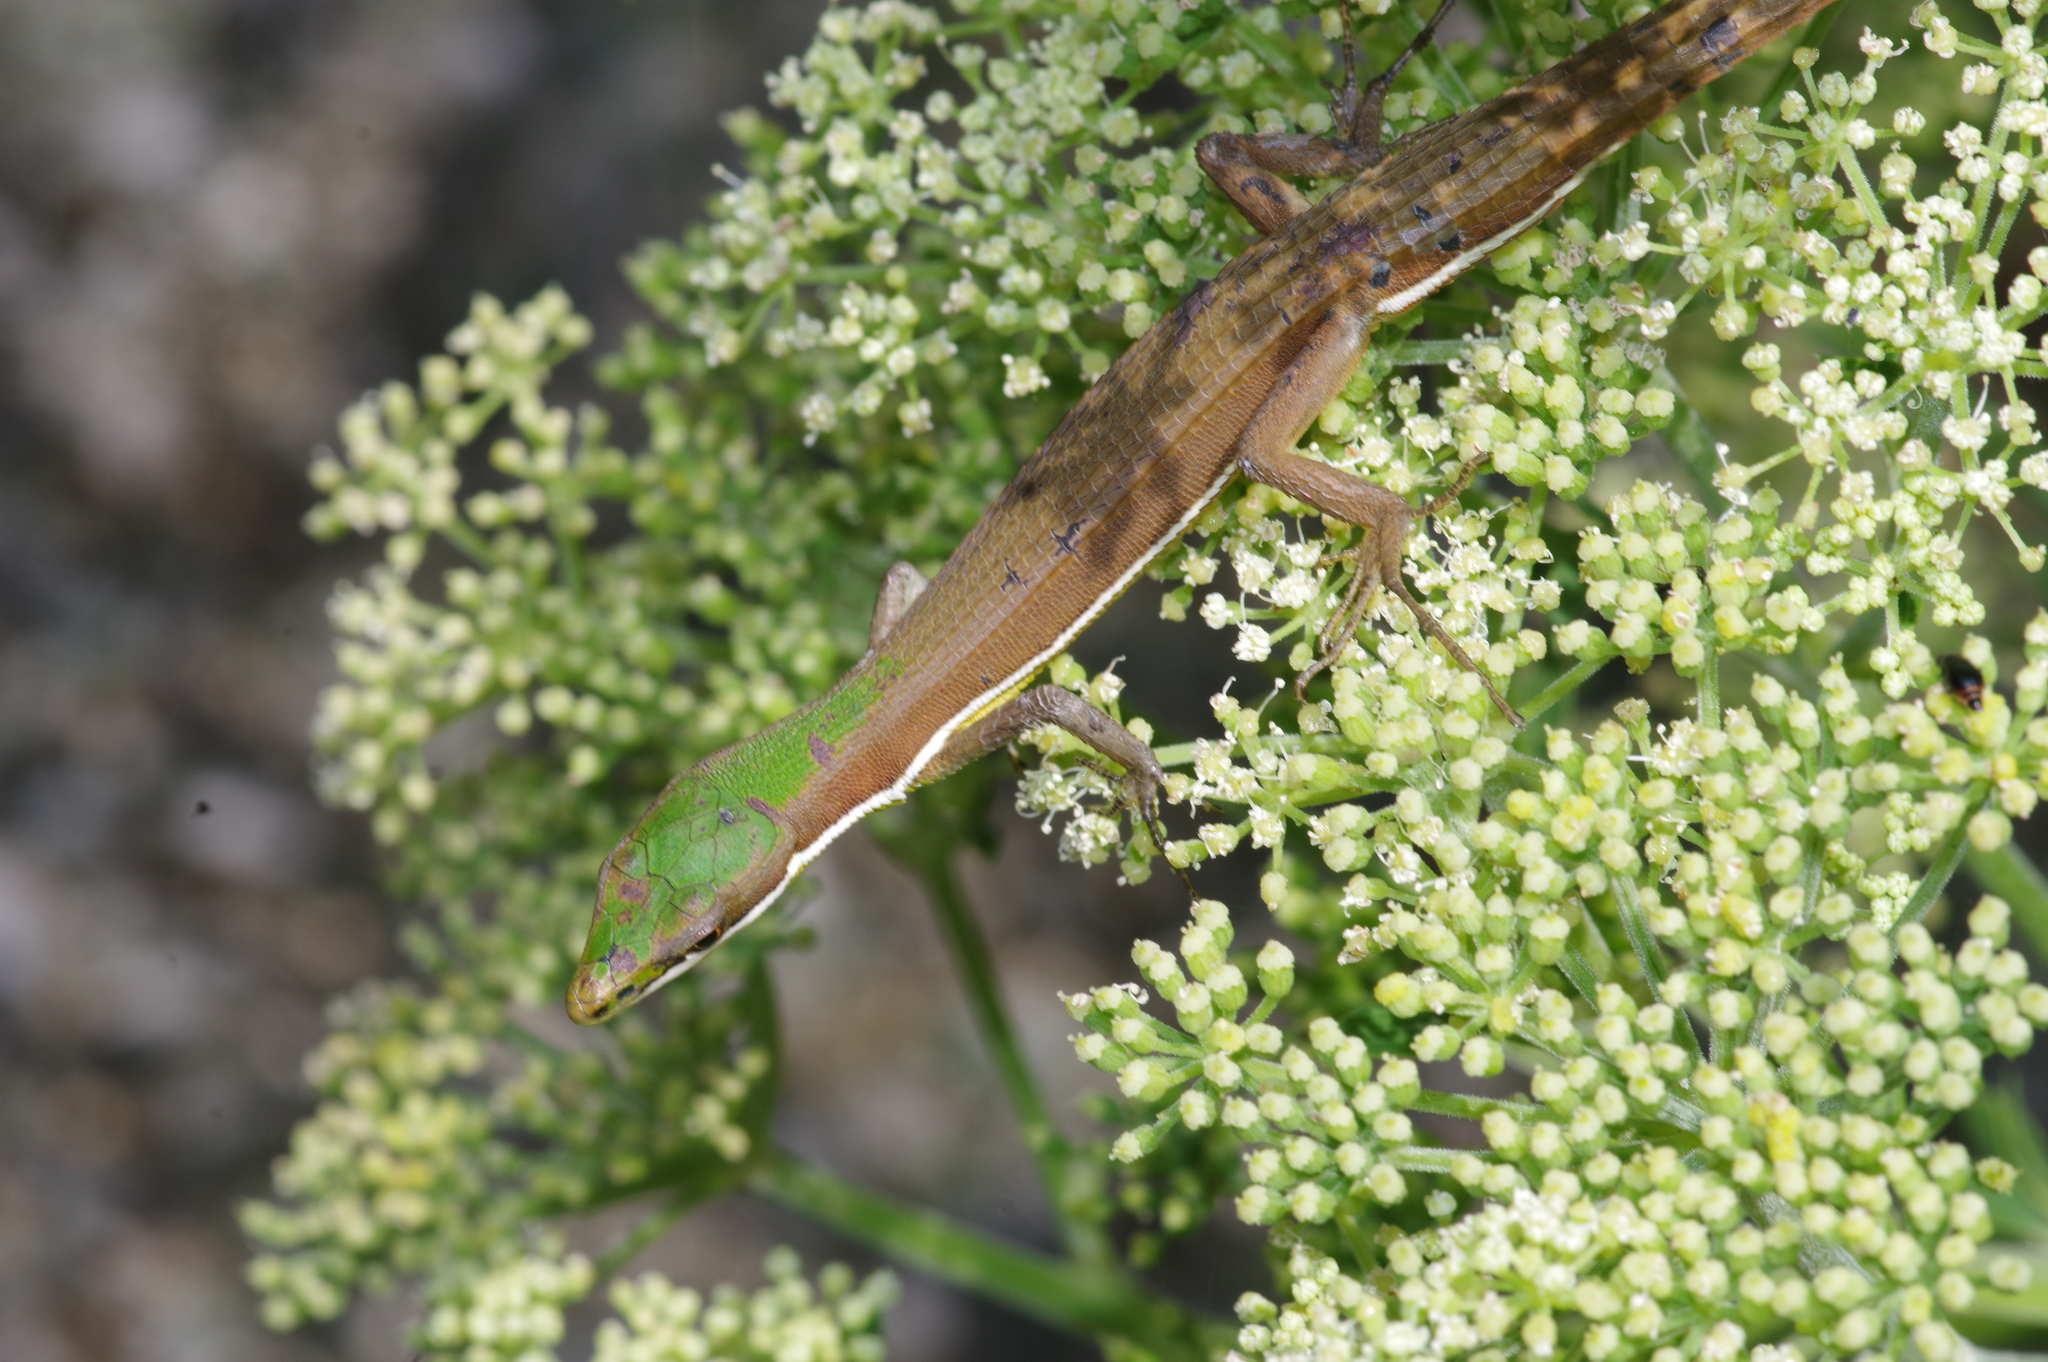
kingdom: Animalia
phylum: Chordata
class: Squamata
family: Lacertidae
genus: Takydromus
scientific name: Takydromus smaragdinus
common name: Green grass lizard
